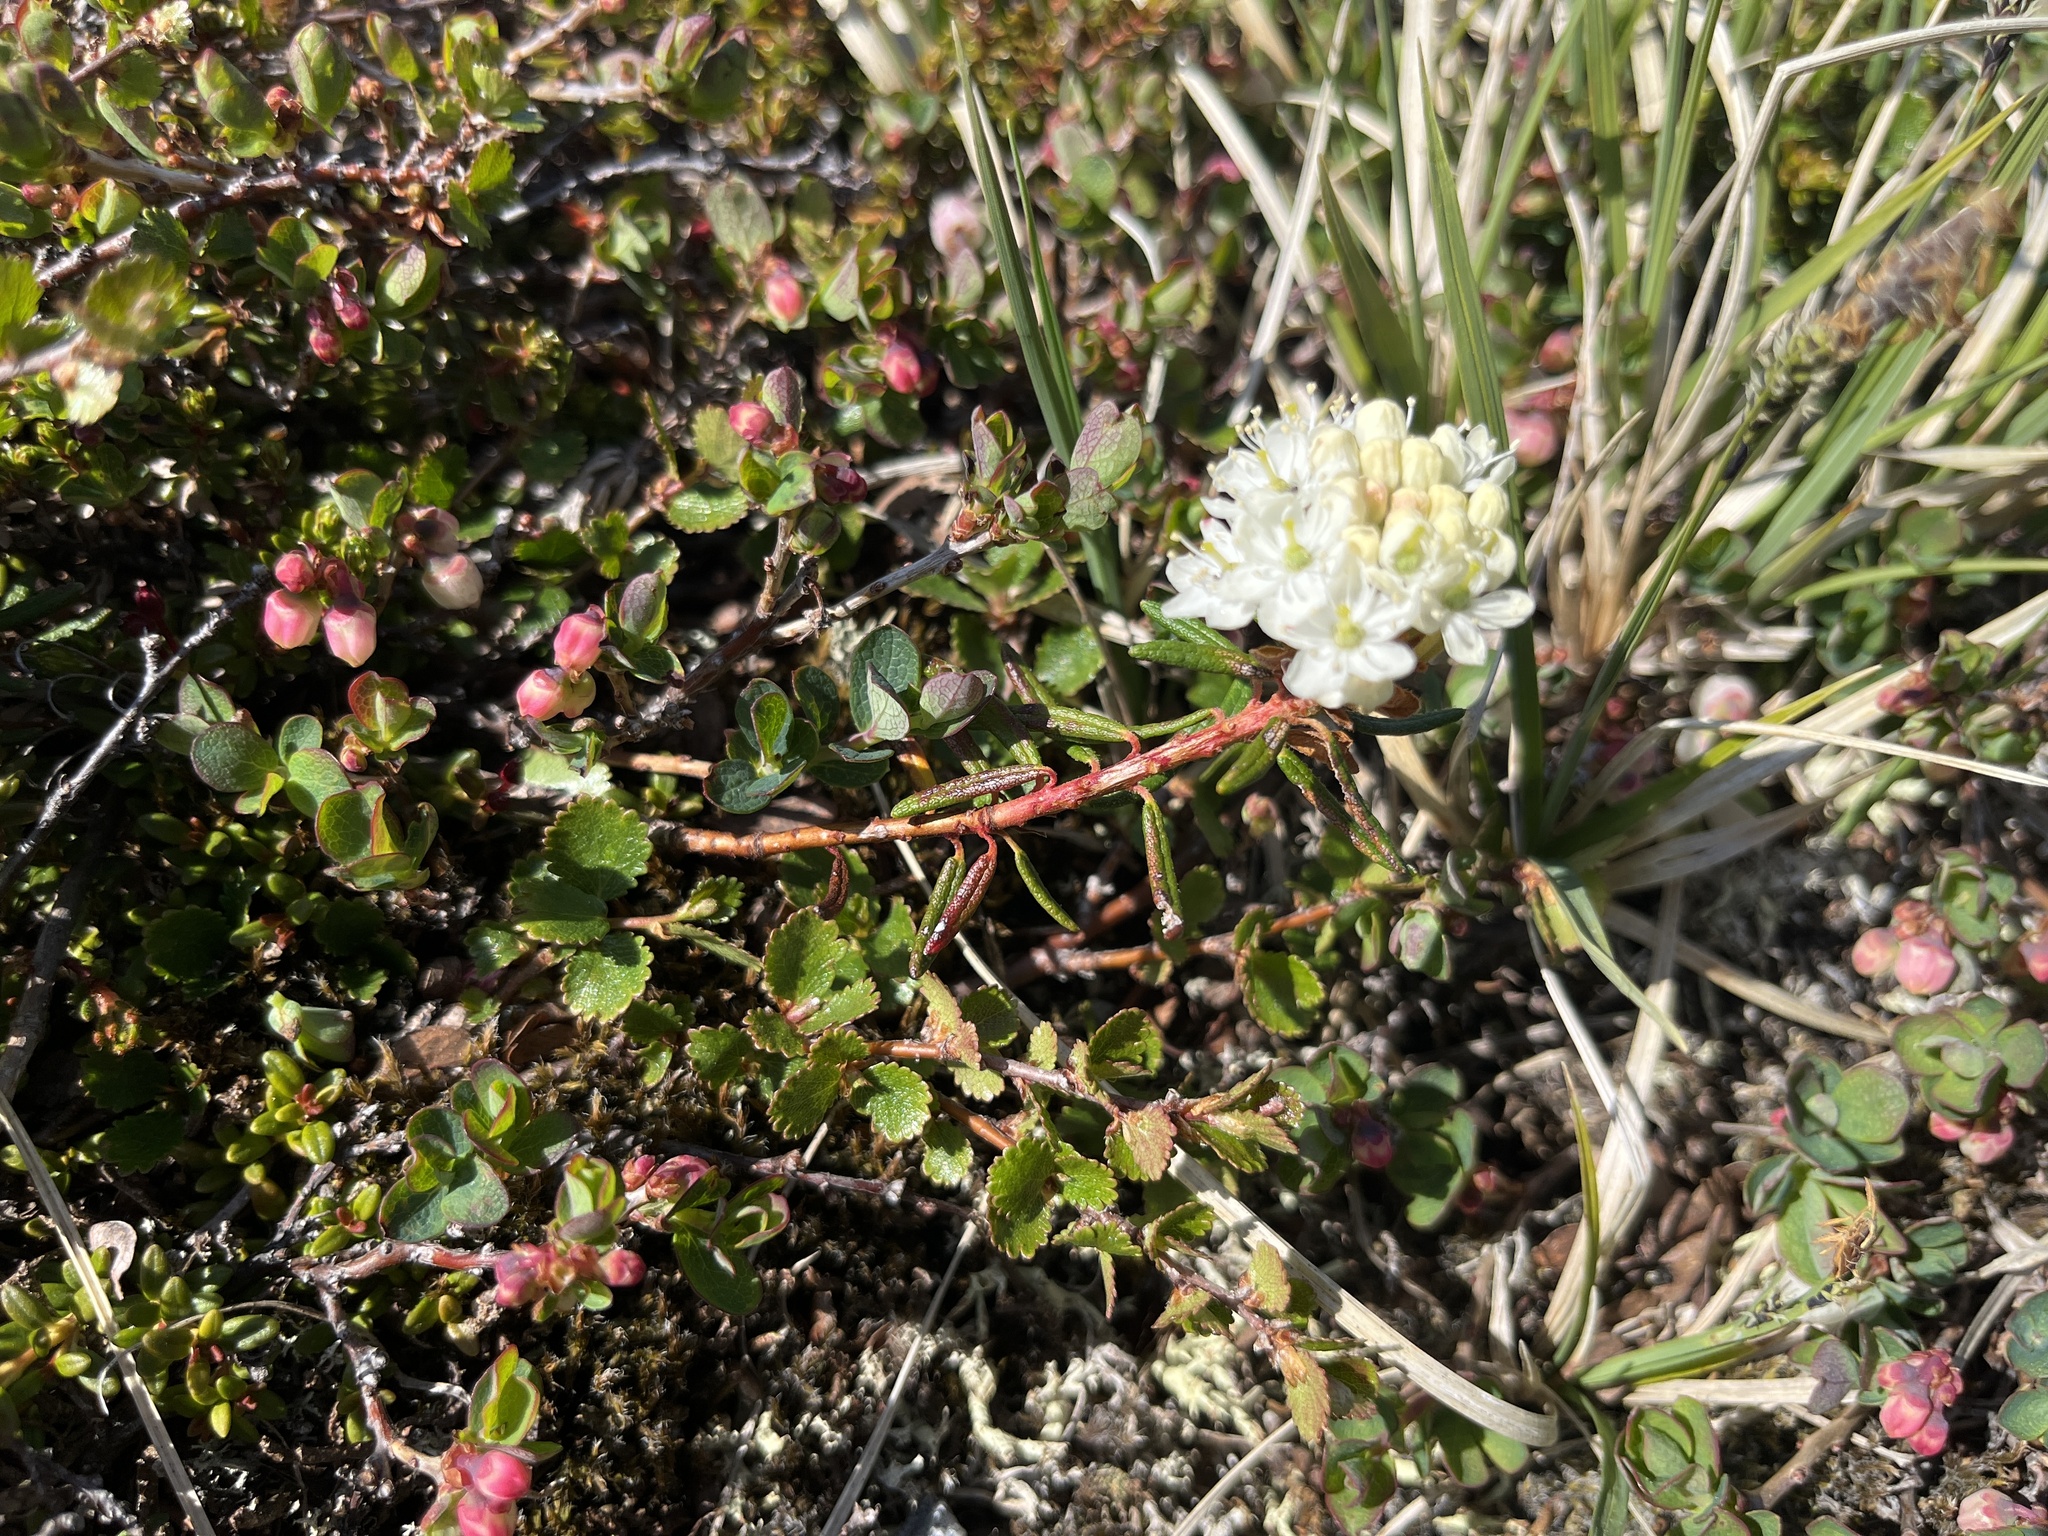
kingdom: Plantae
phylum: Tracheophyta
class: Magnoliopsida
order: Ericales
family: Ericaceae
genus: Rhododendron
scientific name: Rhododendron tomentosum
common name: Marsh labrador tea
